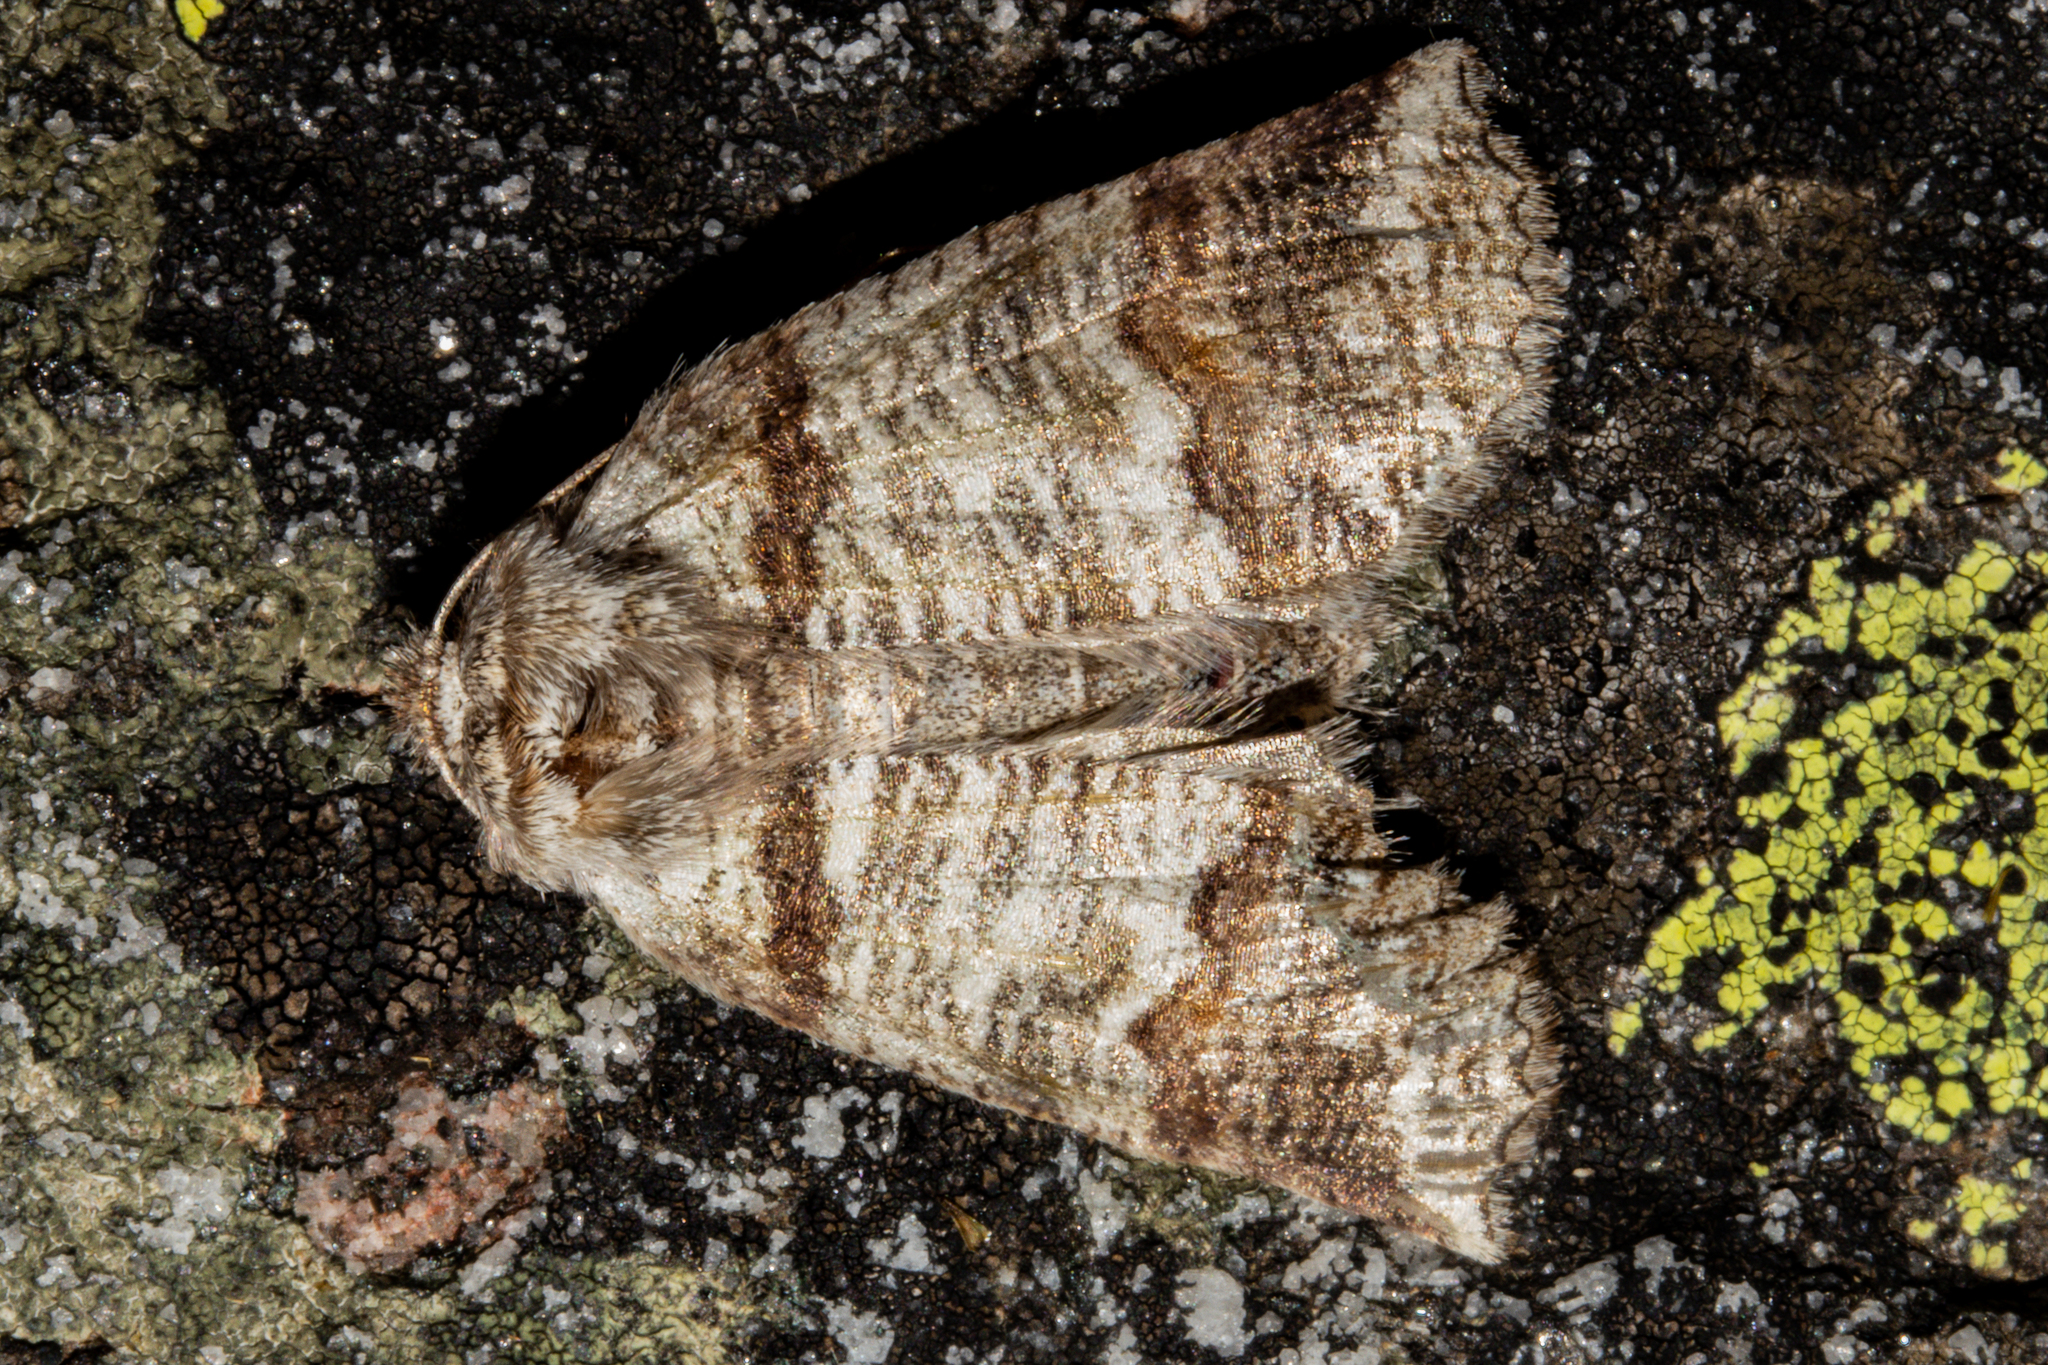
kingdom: Animalia
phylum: Arthropoda
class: Insecta
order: Lepidoptera
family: Geometridae
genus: Declana
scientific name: Declana
